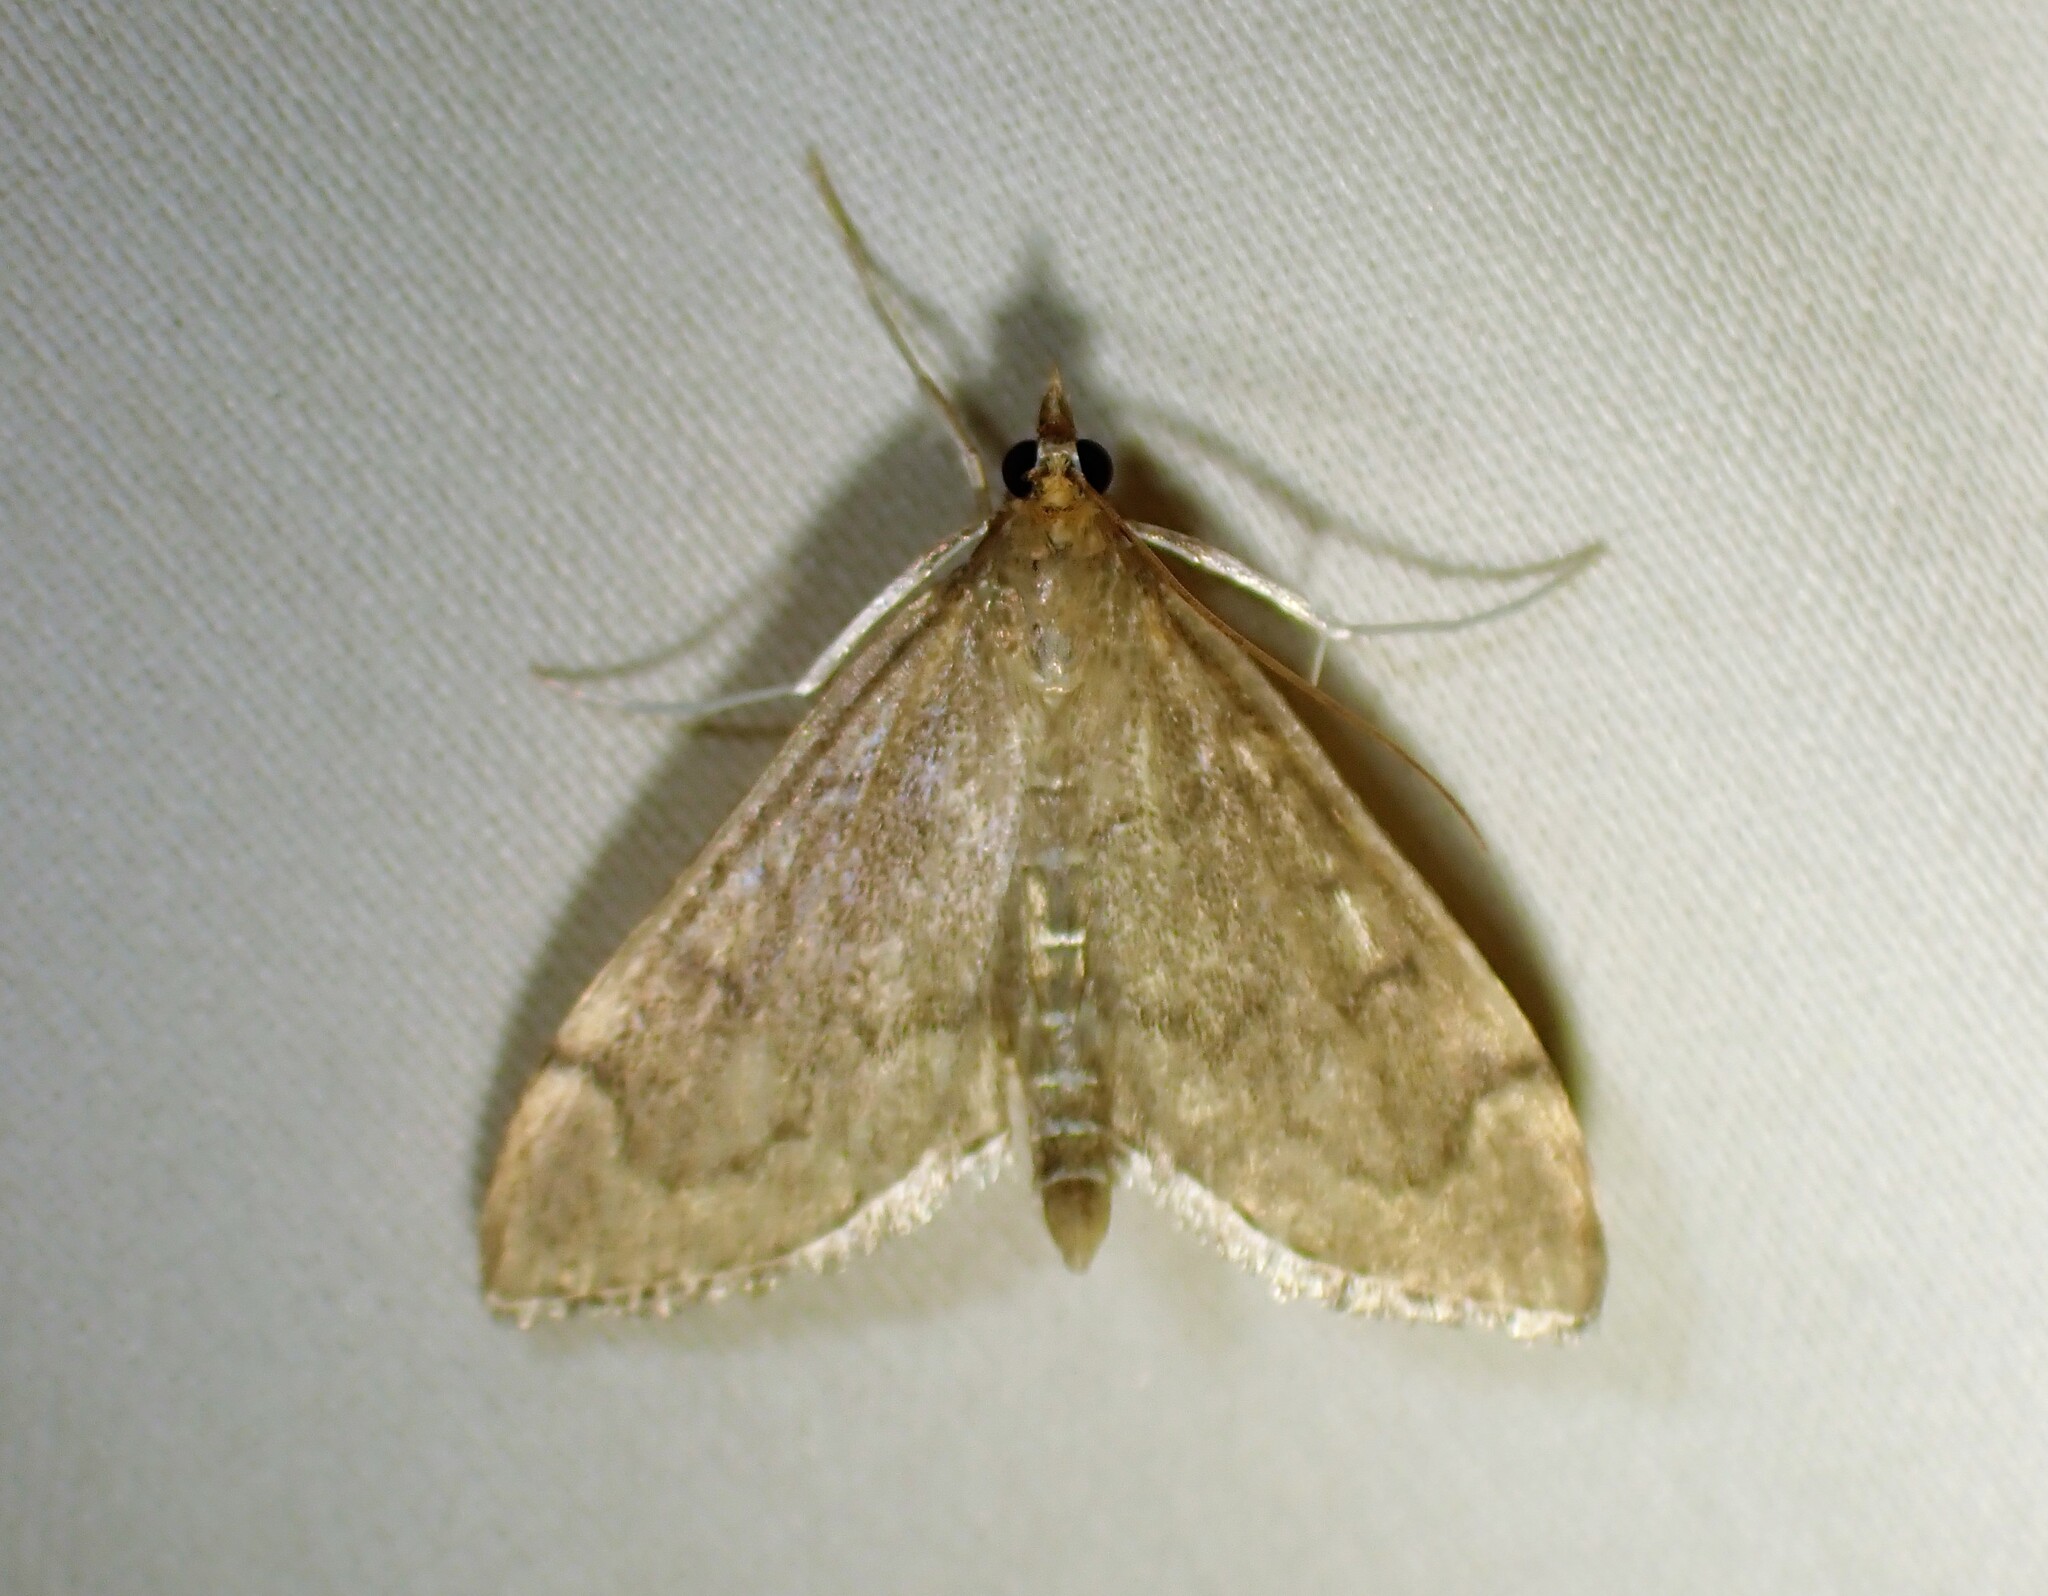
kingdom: Animalia
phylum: Arthropoda
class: Insecta
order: Lepidoptera
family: Crambidae
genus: Anania
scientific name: Anania mysippusalis
